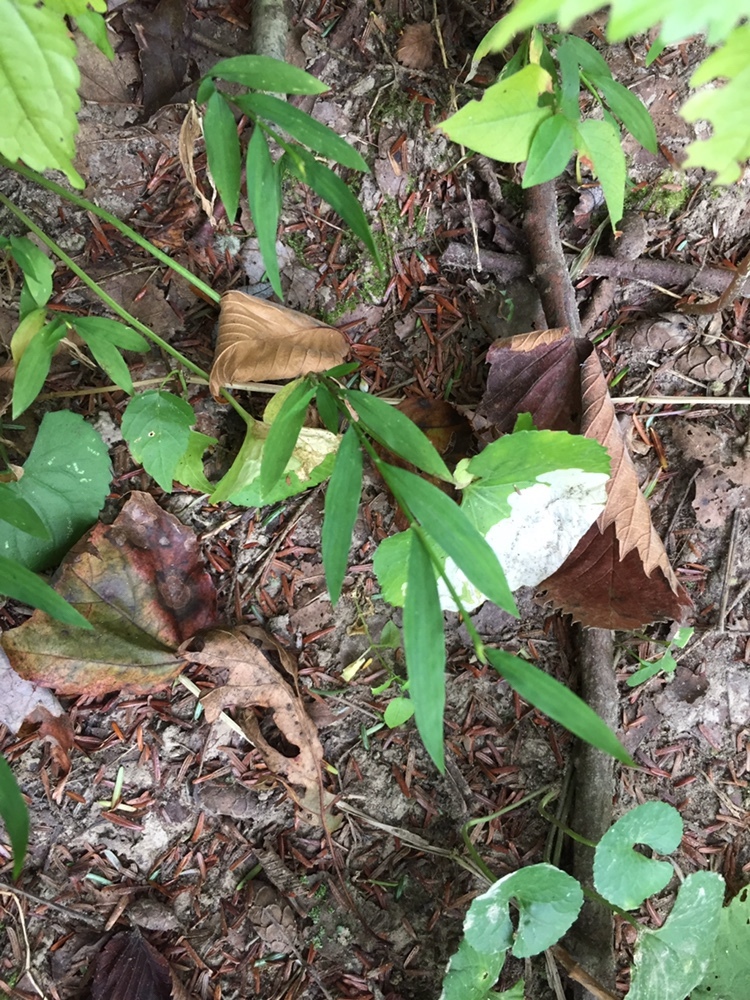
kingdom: Plantae
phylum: Tracheophyta
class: Liliopsida
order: Poales
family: Poaceae
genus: Microstegium
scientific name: Microstegium vimineum
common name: Japanese stiltgrass
